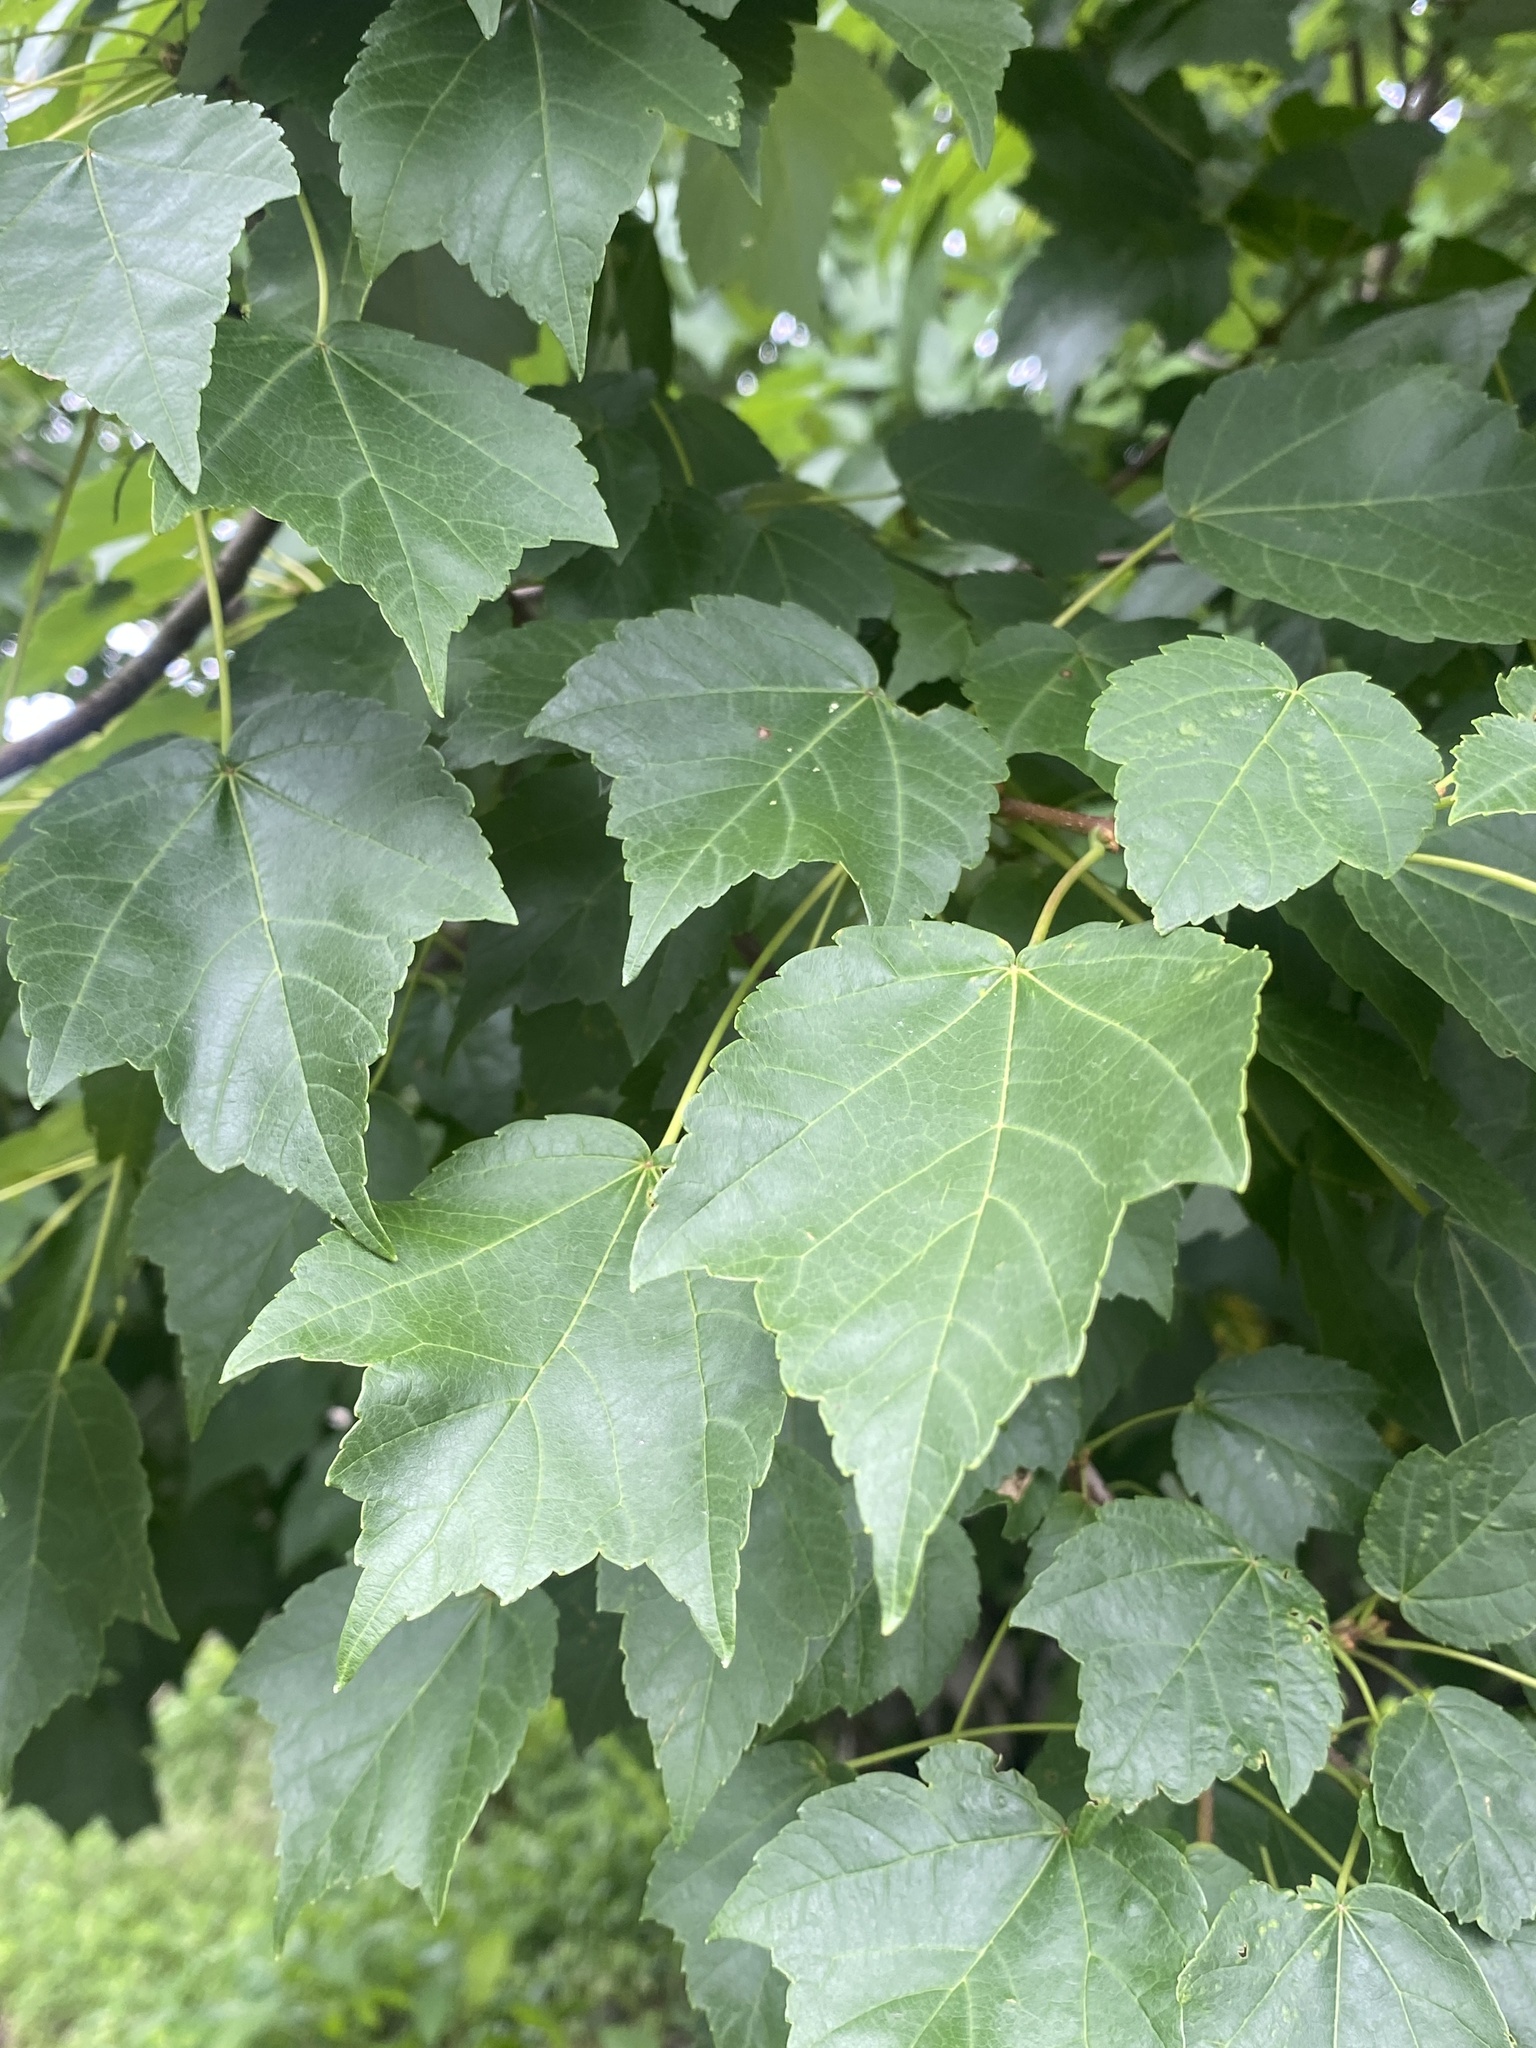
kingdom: Plantae
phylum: Tracheophyta
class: Magnoliopsida
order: Sapindales
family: Sapindaceae
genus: Acer
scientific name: Acer rubrum
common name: Red maple
